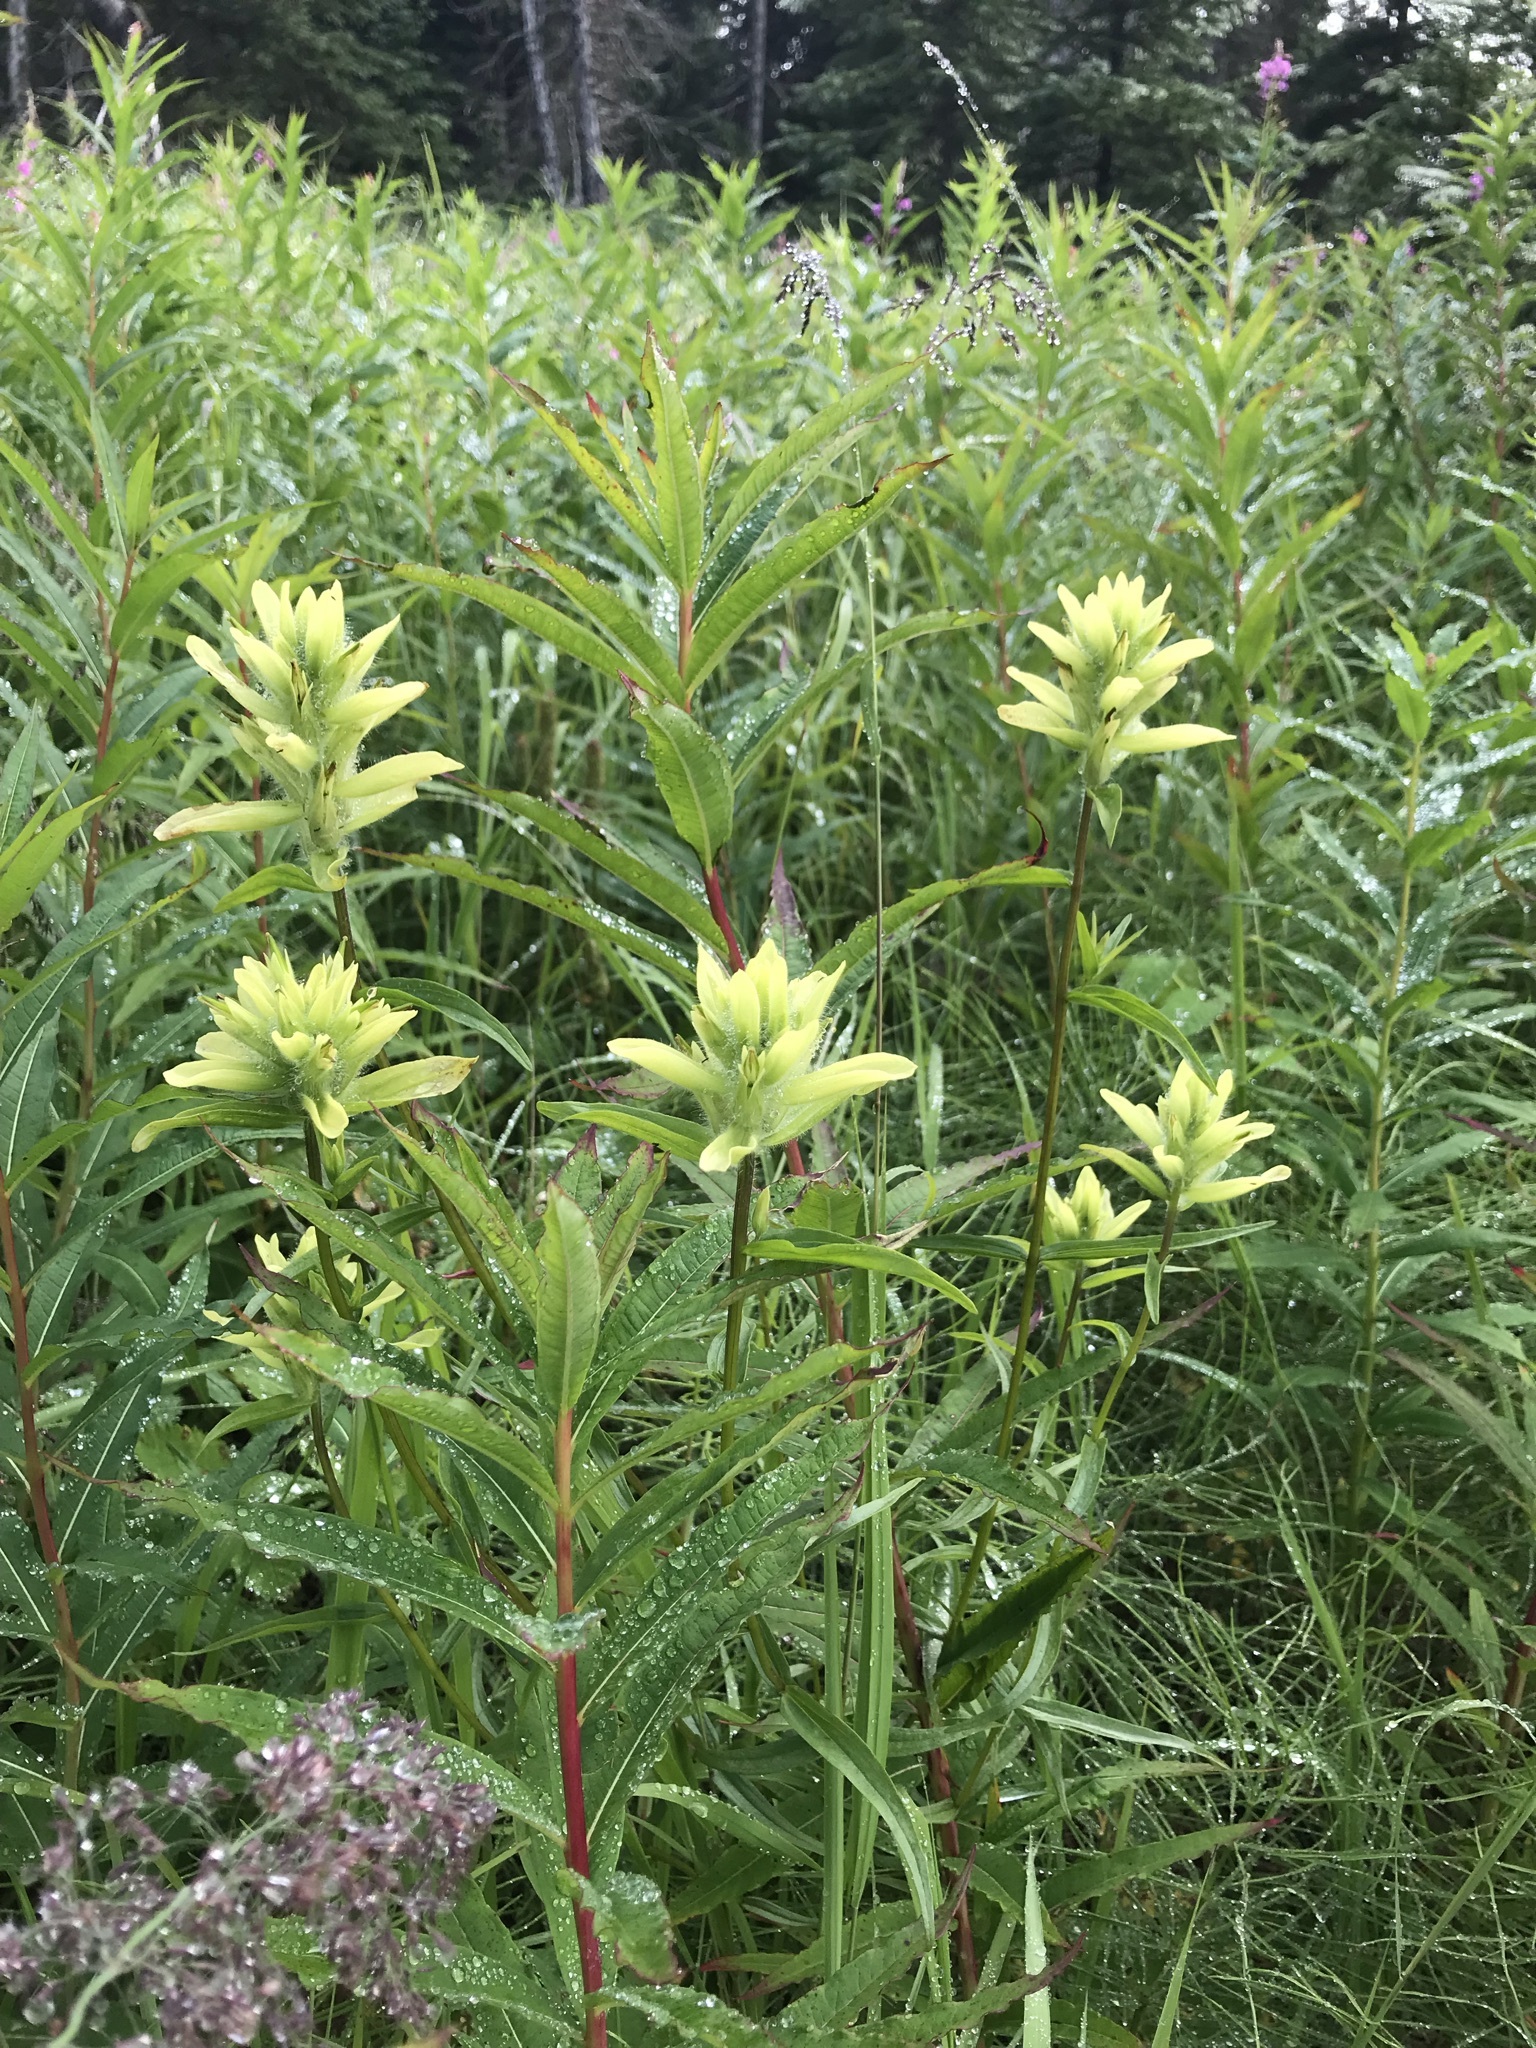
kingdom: Plantae
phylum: Tracheophyta
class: Magnoliopsida
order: Lamiales
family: Orobanchaceae
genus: Castilleja
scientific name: Castilleja unalaschcensis
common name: Unalaska paintbrush
